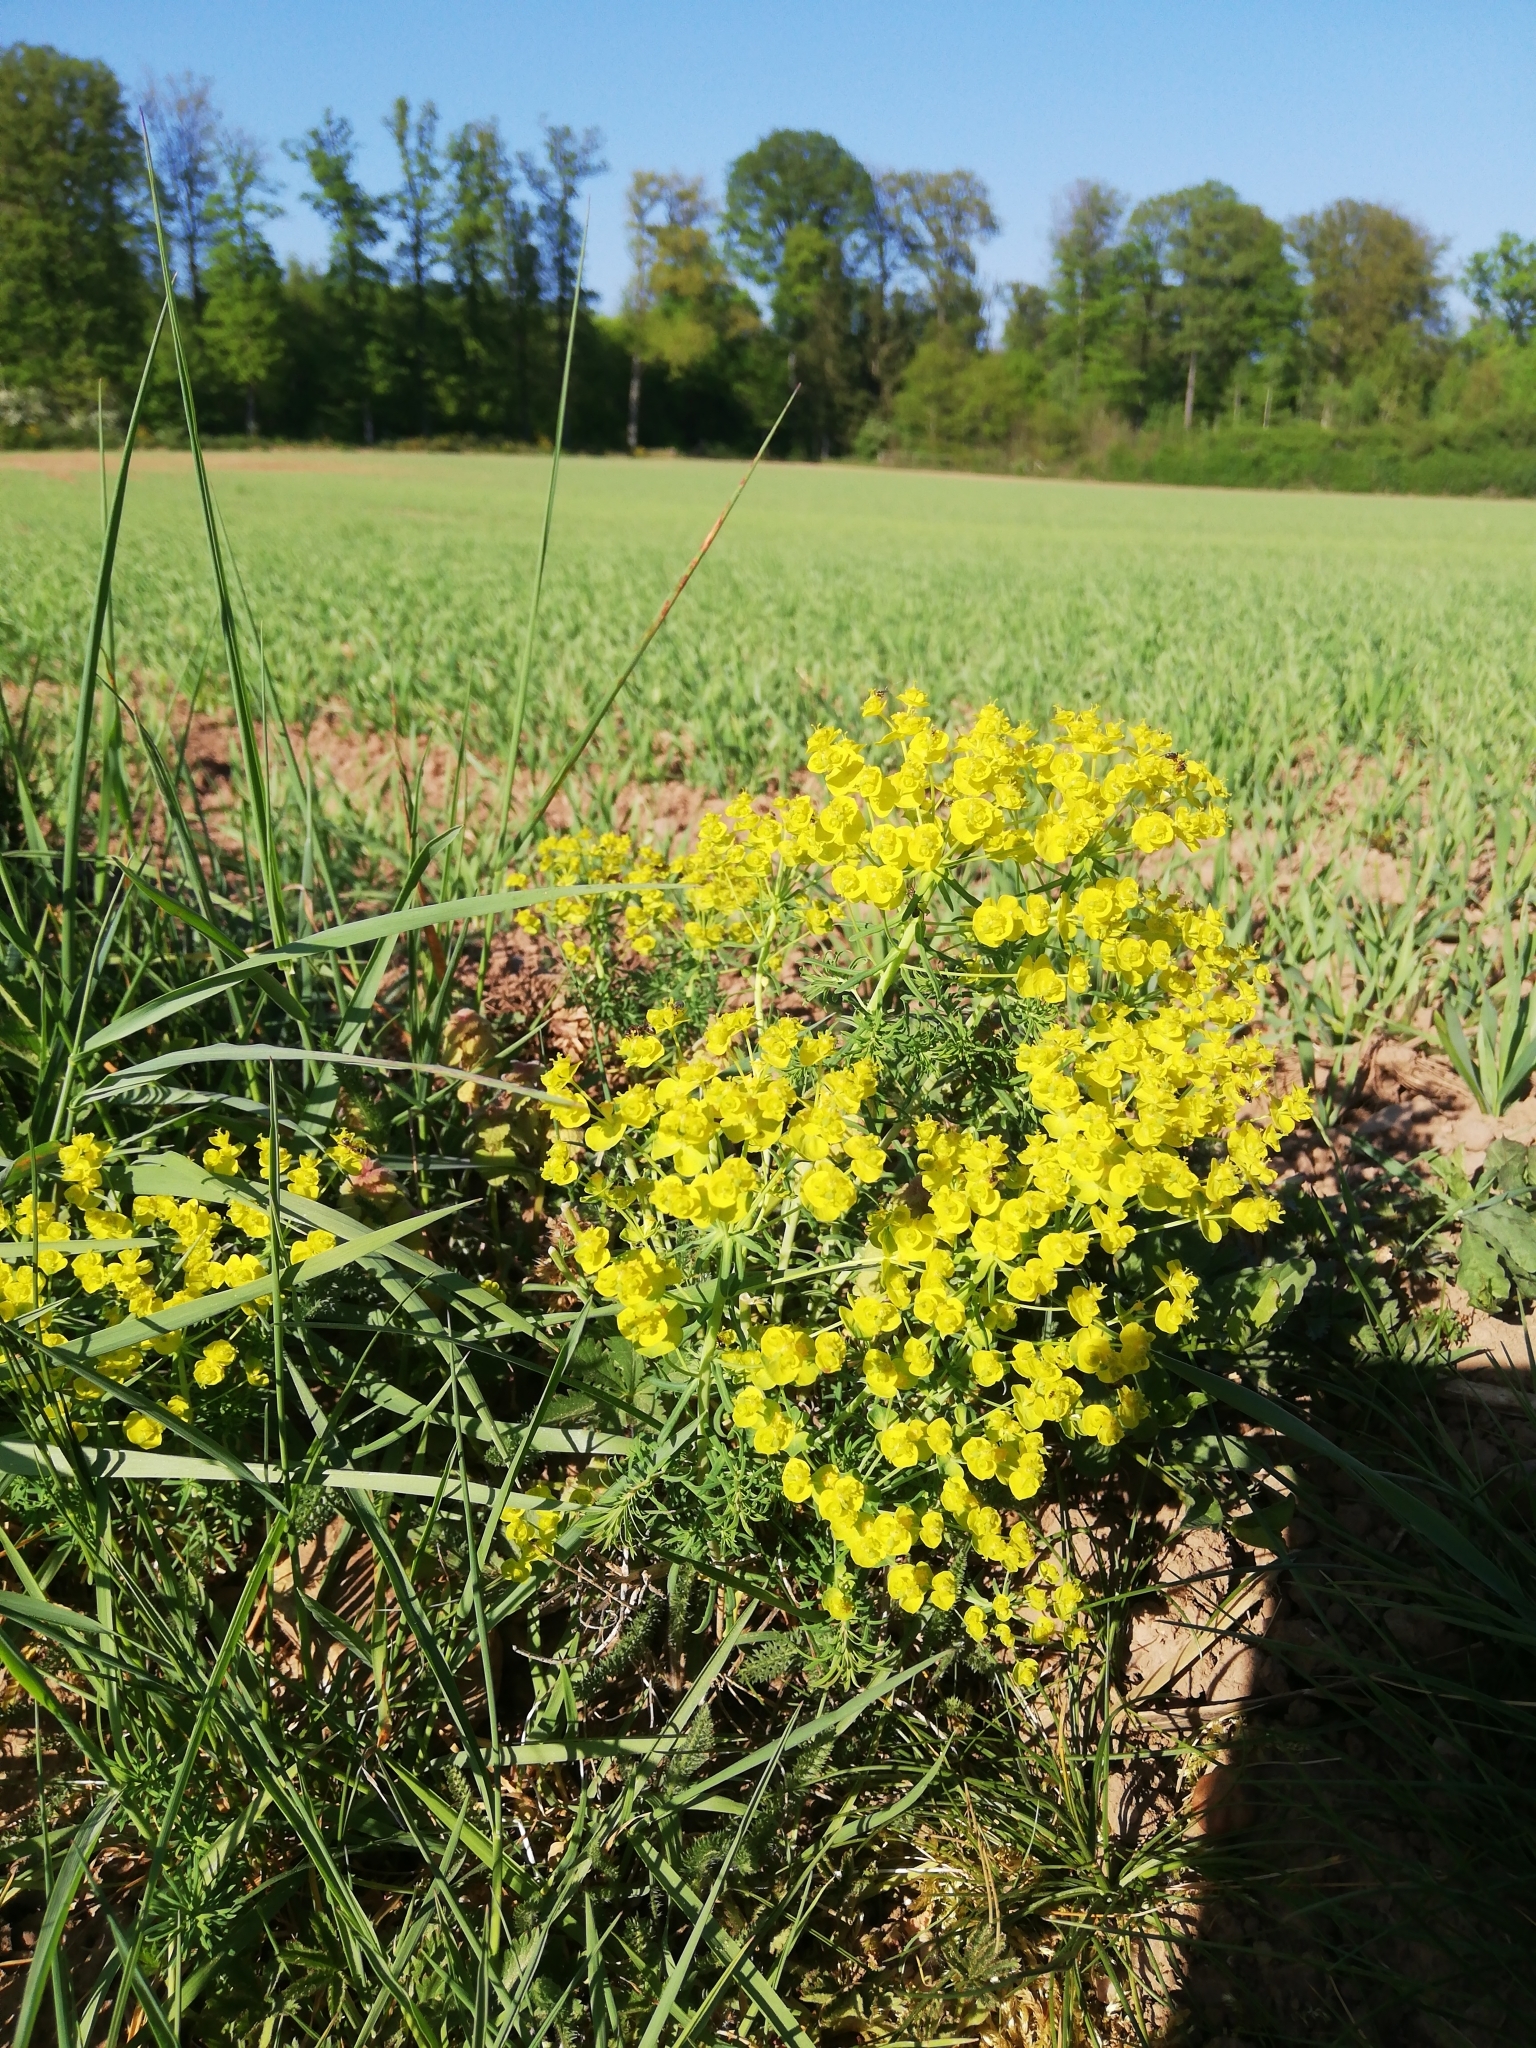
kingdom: Plantae
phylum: Tracheophyta
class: Magnoliopsida
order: Malpighiales
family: Euphorbiaceae
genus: Euphorbia
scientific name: Euphorbia cyparissias
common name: Cypress spurge
